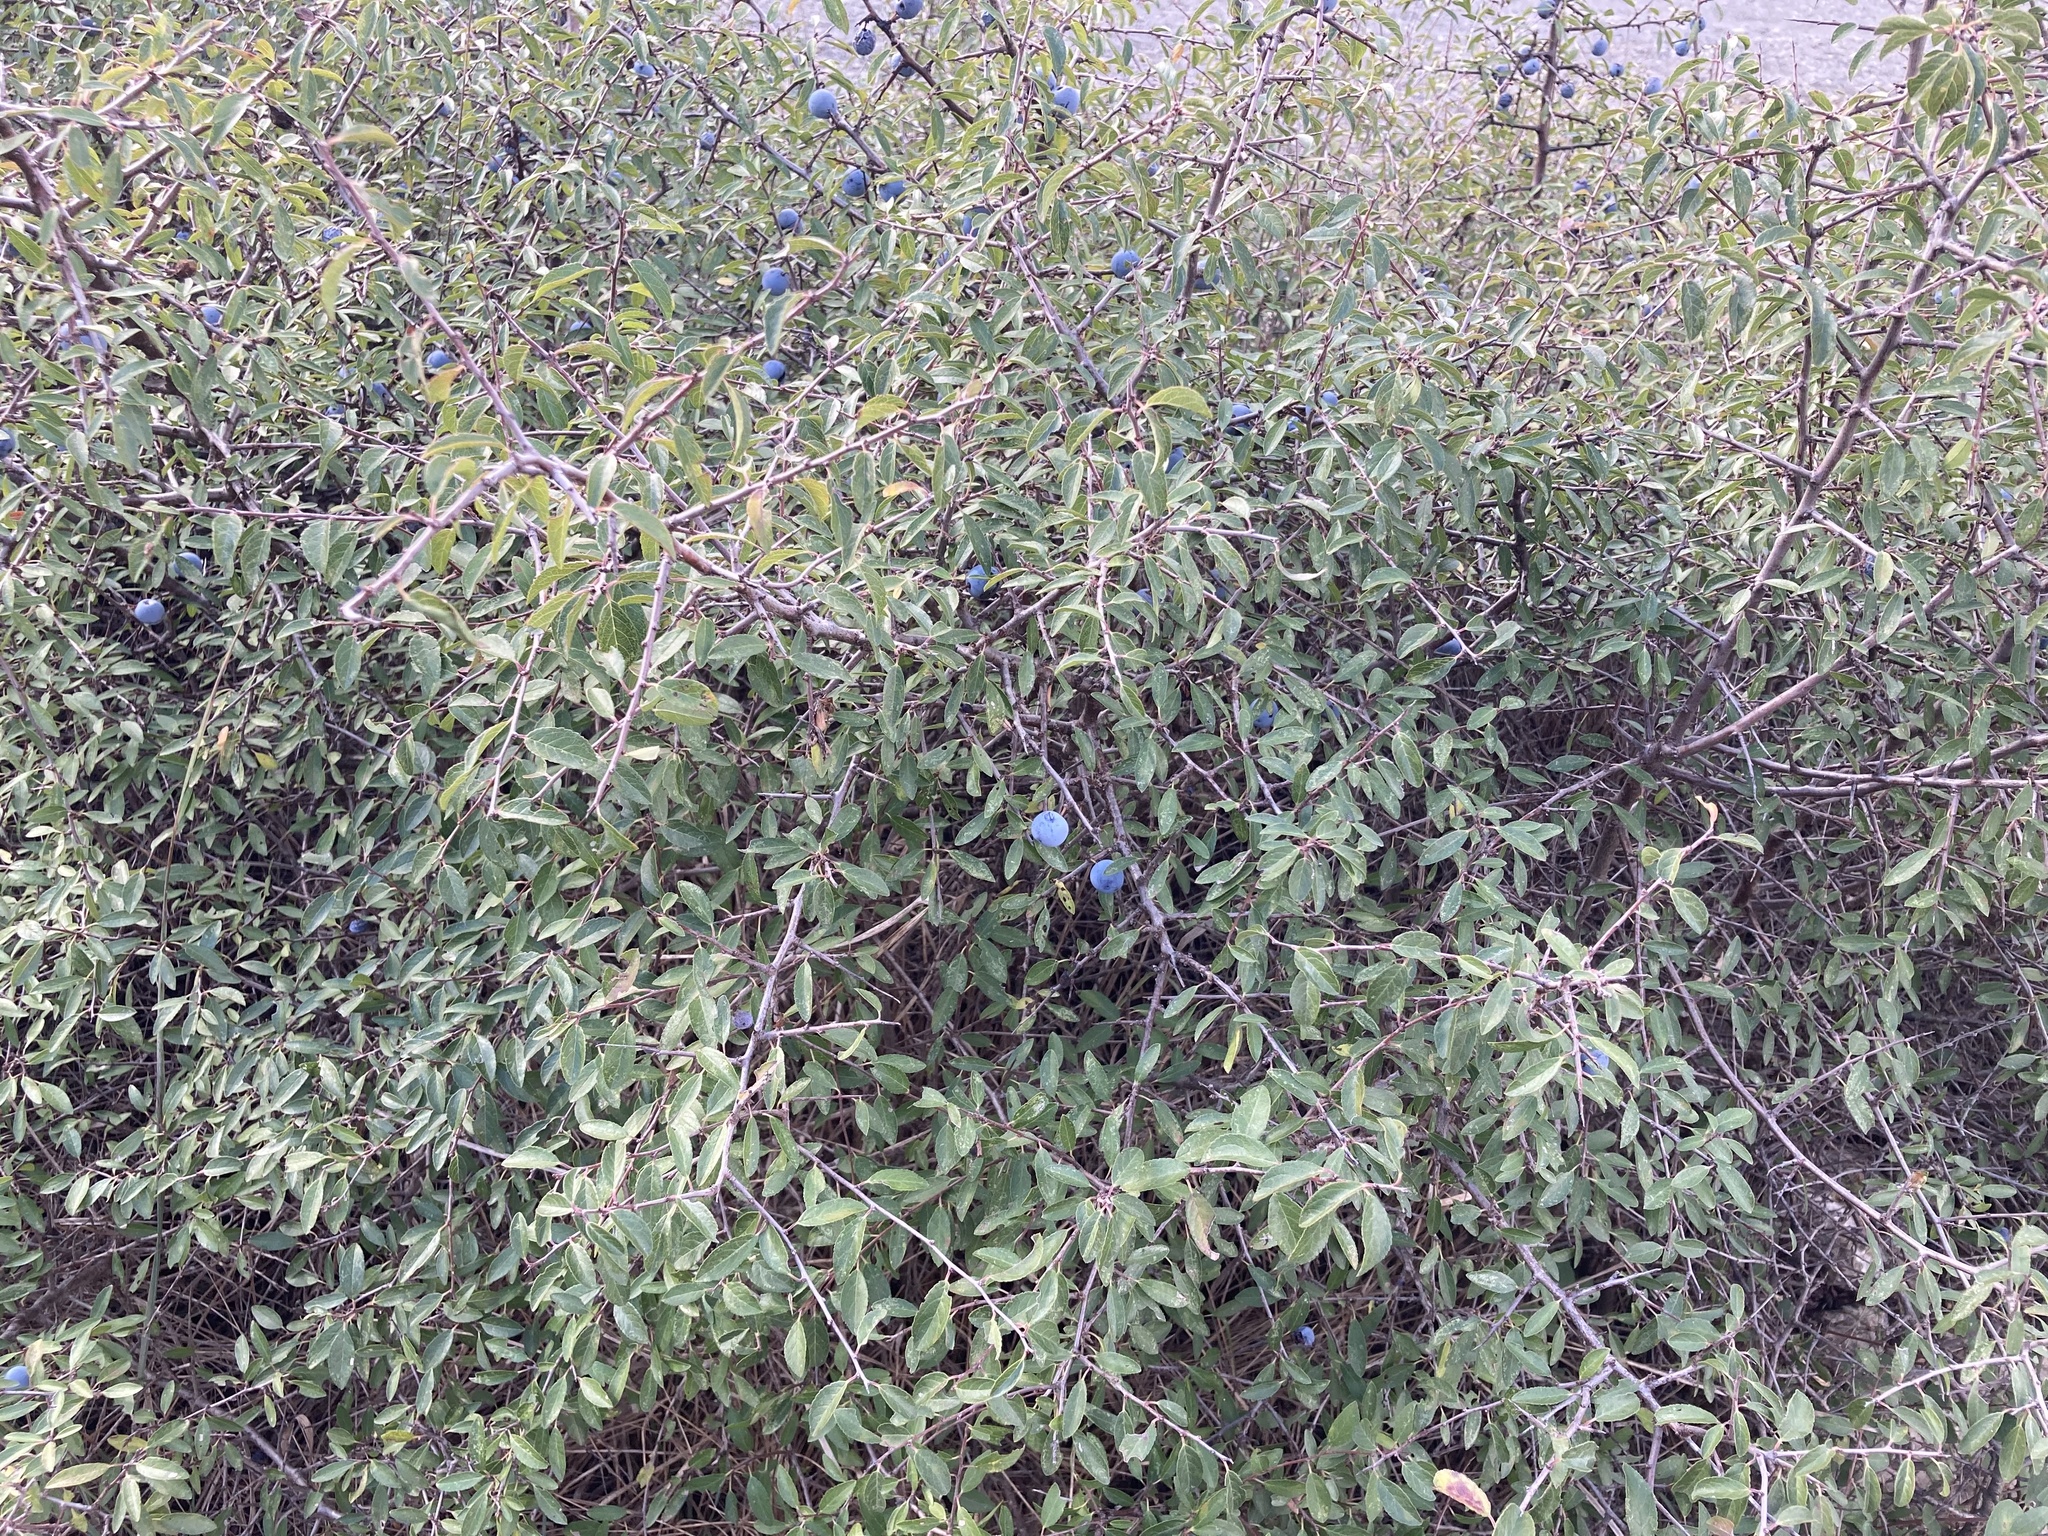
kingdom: Plantae
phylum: Tracheophyta
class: Magnoliopsida
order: Rosales
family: Rosaceae
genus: Prunus
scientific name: Prunus spinosa
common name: Blackthorn
